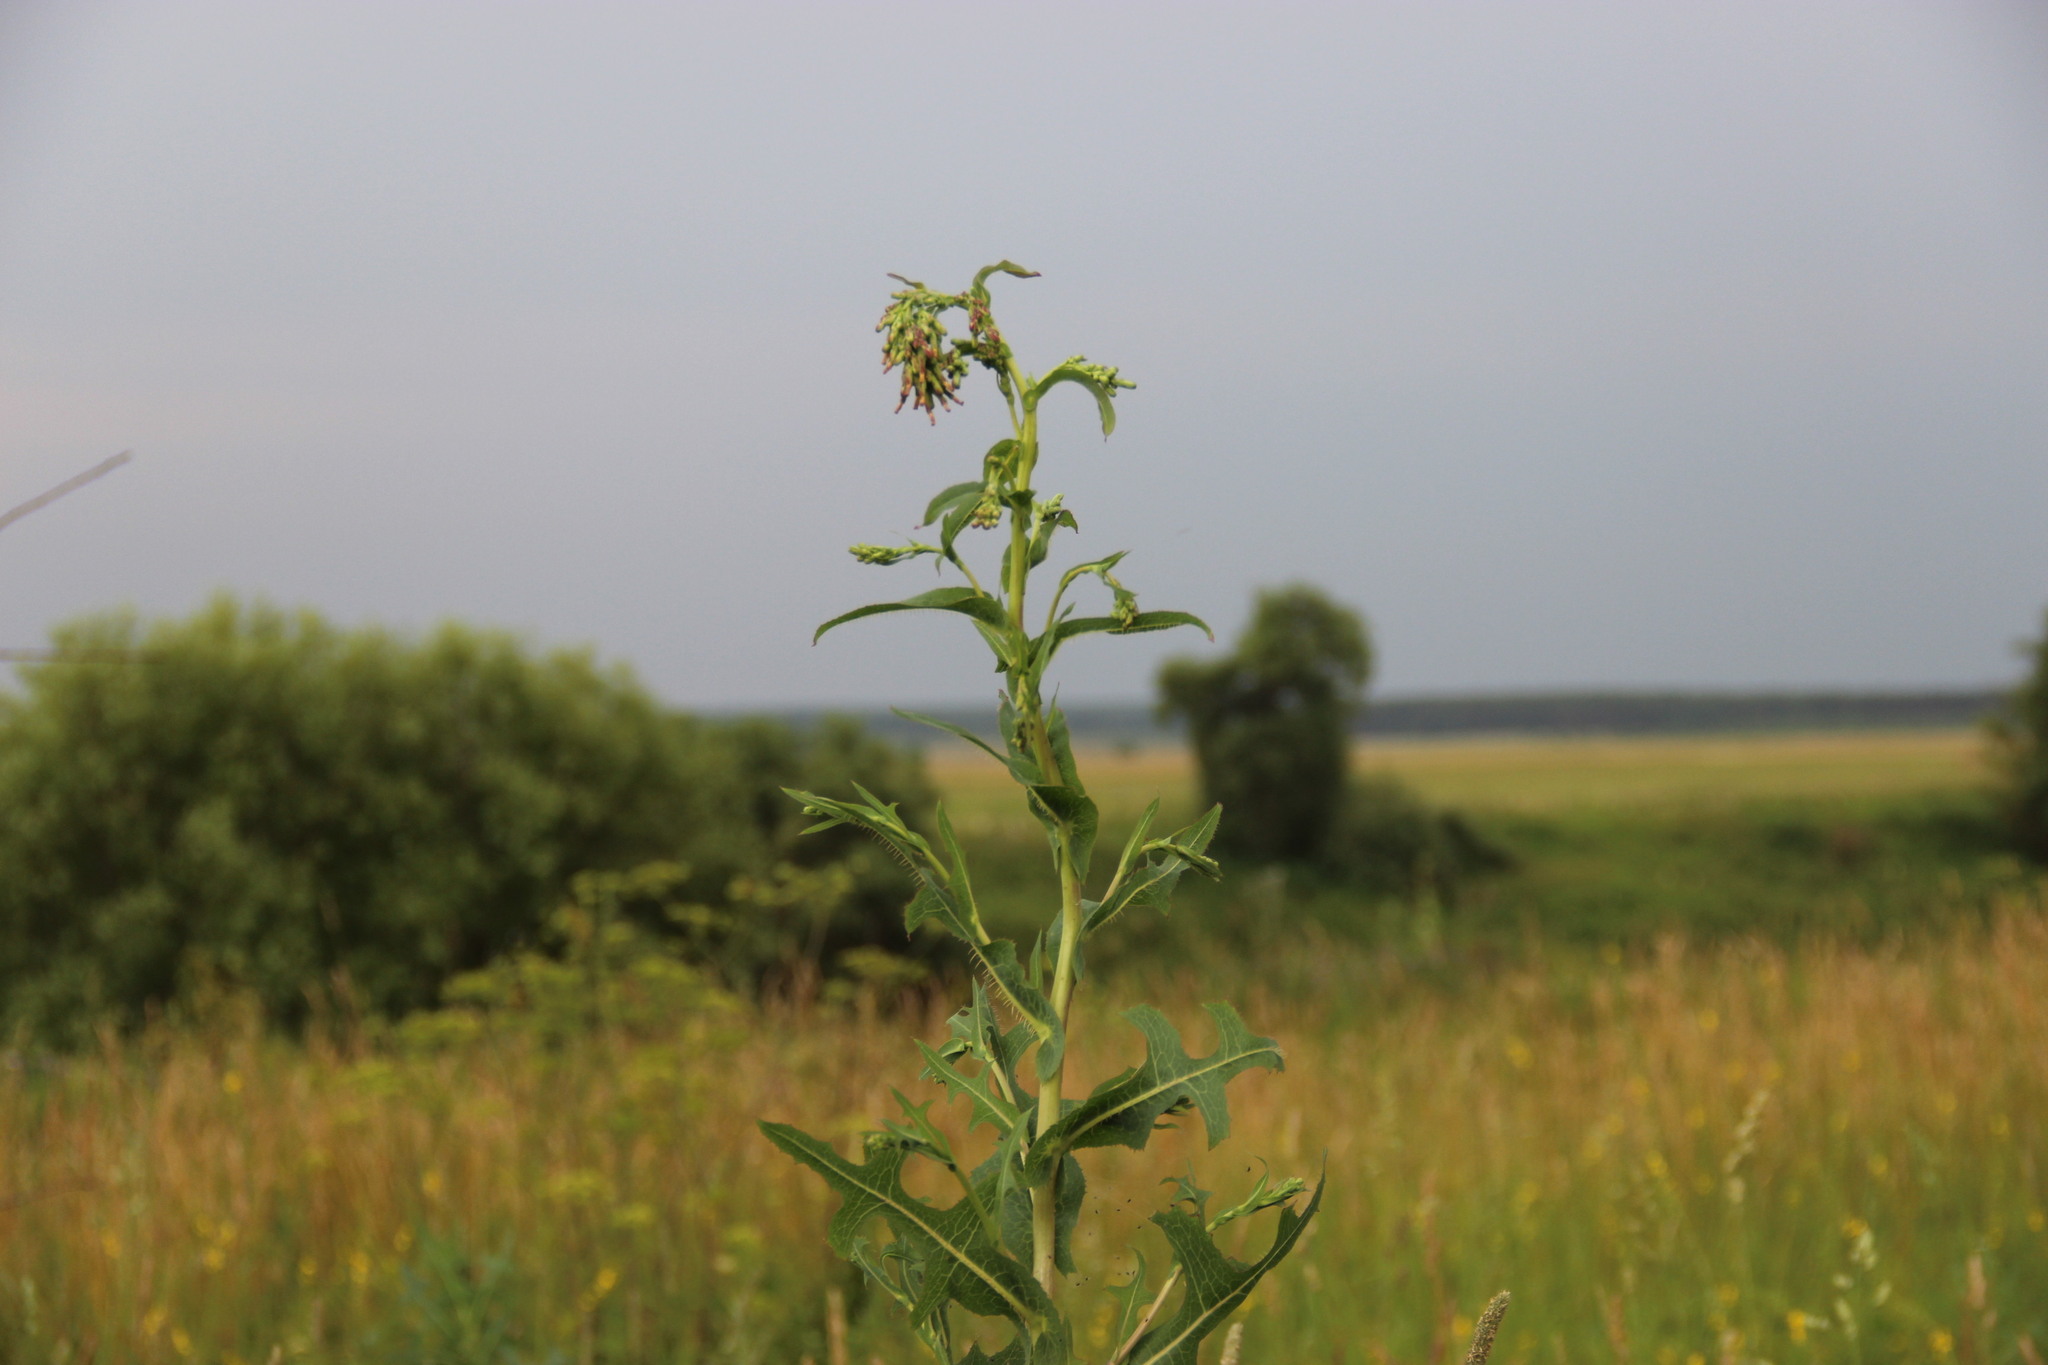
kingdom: Plantae
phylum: Tracheophyta
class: Magnoliopsida
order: Asterales
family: Asteraceae
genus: Lactuca
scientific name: Lactuca serriola
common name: Prickly lettuce
